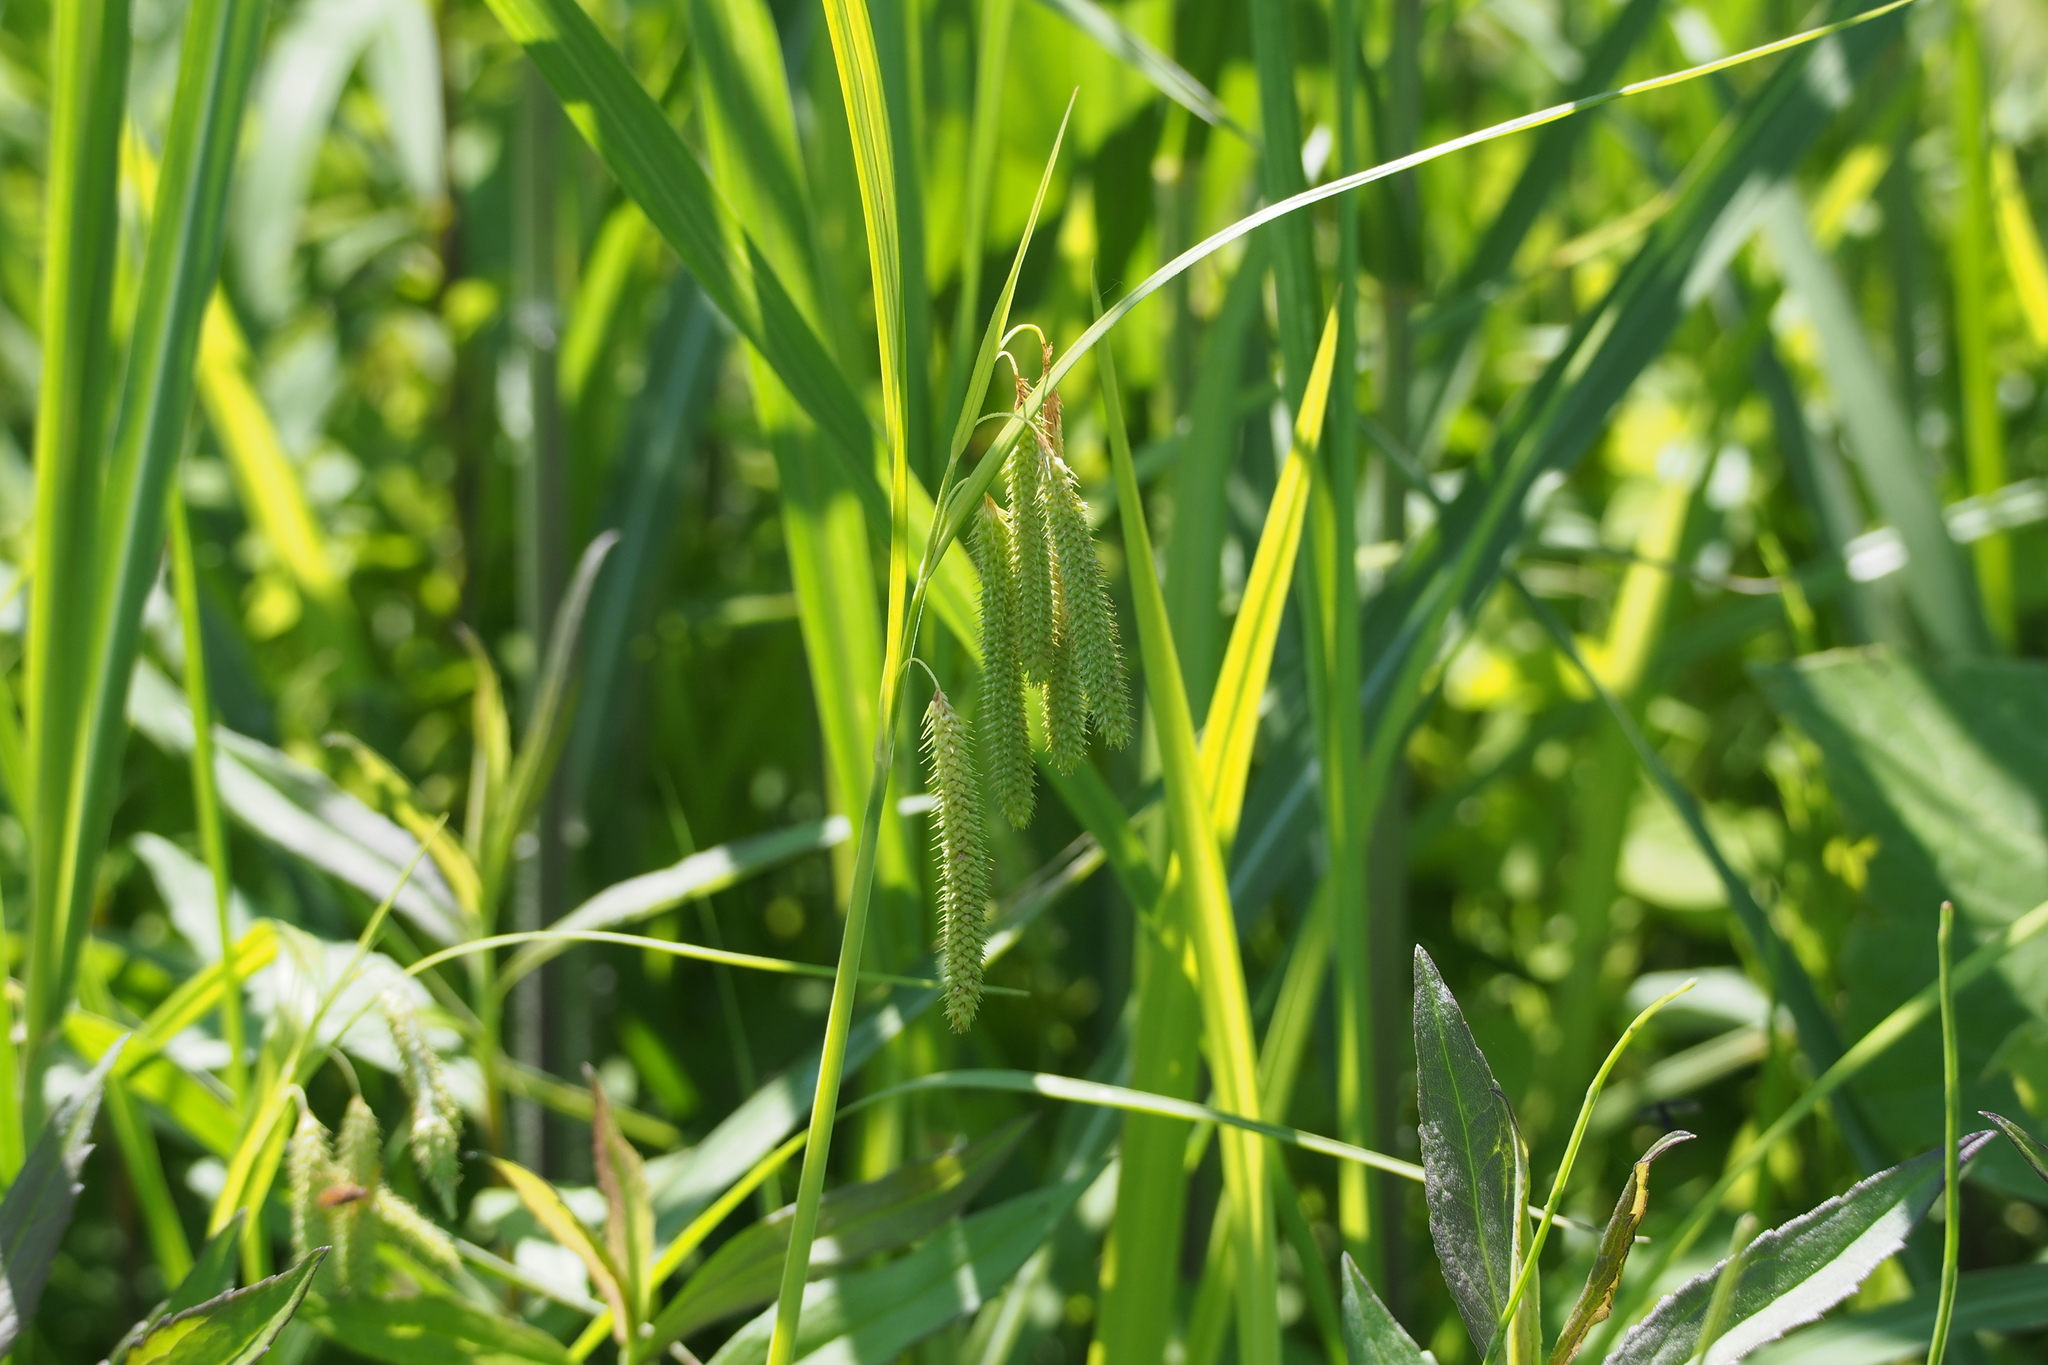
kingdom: Plantae
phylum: Tracheophyta
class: Liliopsida
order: Poales
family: Cyperaceae
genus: Carex
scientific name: Carex dimorpholepis
